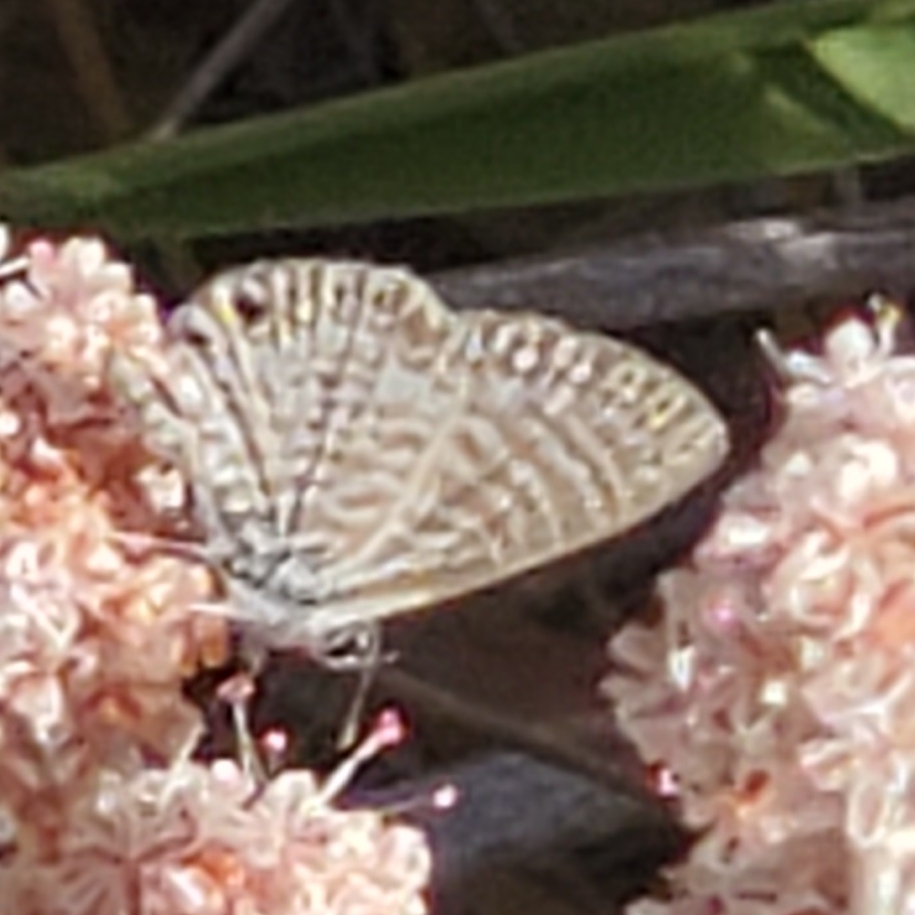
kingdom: Animalia
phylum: Arthropoda
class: Insecta
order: Lepidoptera
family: Lycaenidae
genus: Leptotes
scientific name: Leptotes marina
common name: Marine blue
